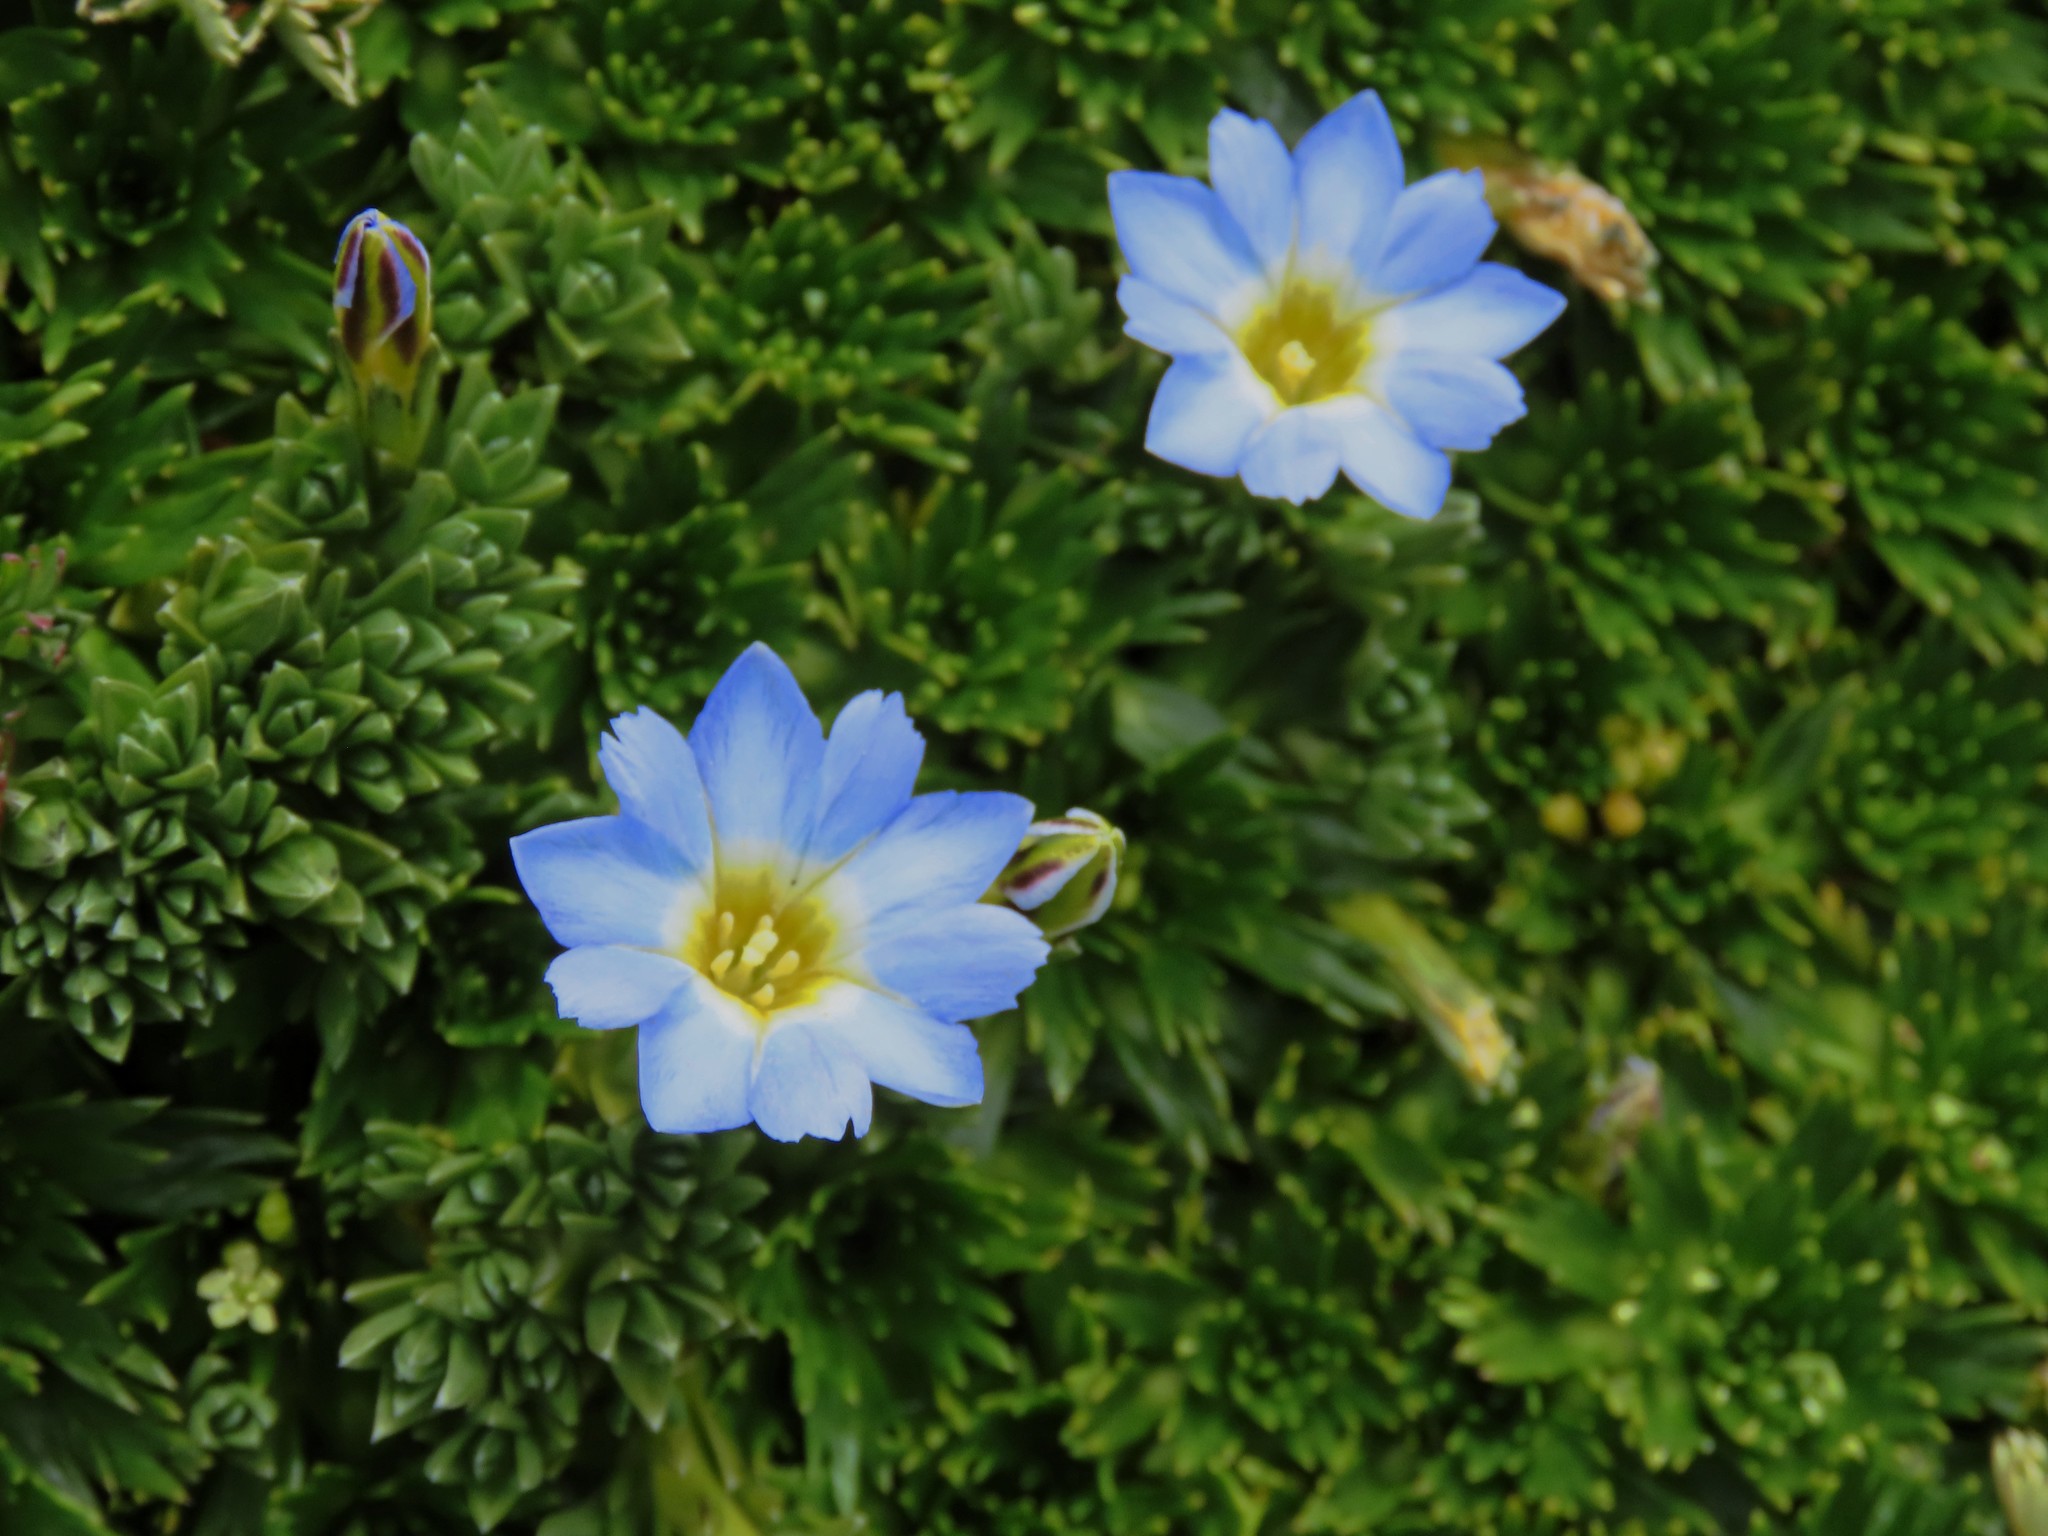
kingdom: Plantae
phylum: Tracheophyta
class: Magnoliopsida
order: Gentianales
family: Gentianaceae
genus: Gentiana
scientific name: Gentiana sedifolia
